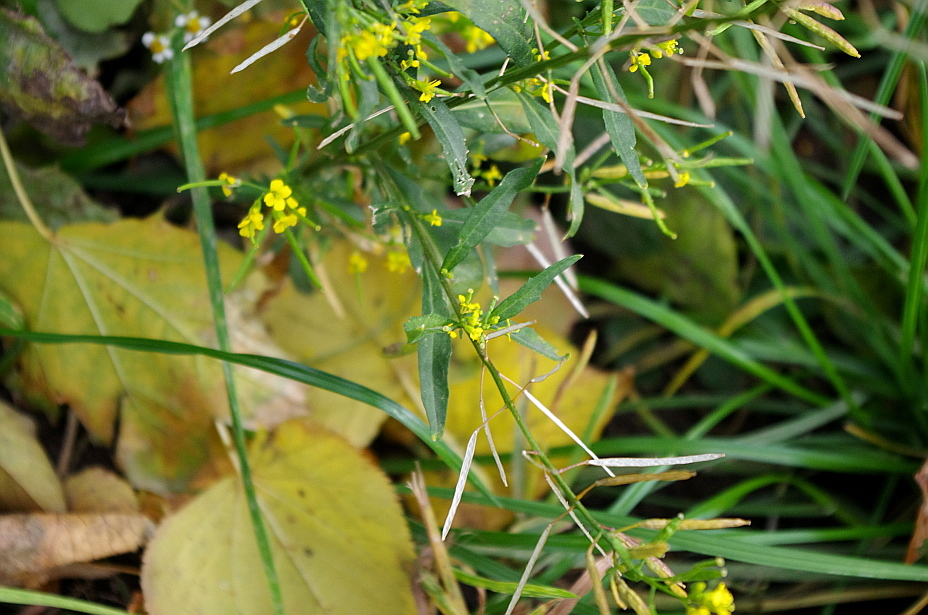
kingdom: Plantae
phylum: Tracheophyta
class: Magnoliopsida
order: Brassicales
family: Brassicaceae
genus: Erysimum
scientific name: Erysimum cheiranthoides
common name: Treacle mustard
